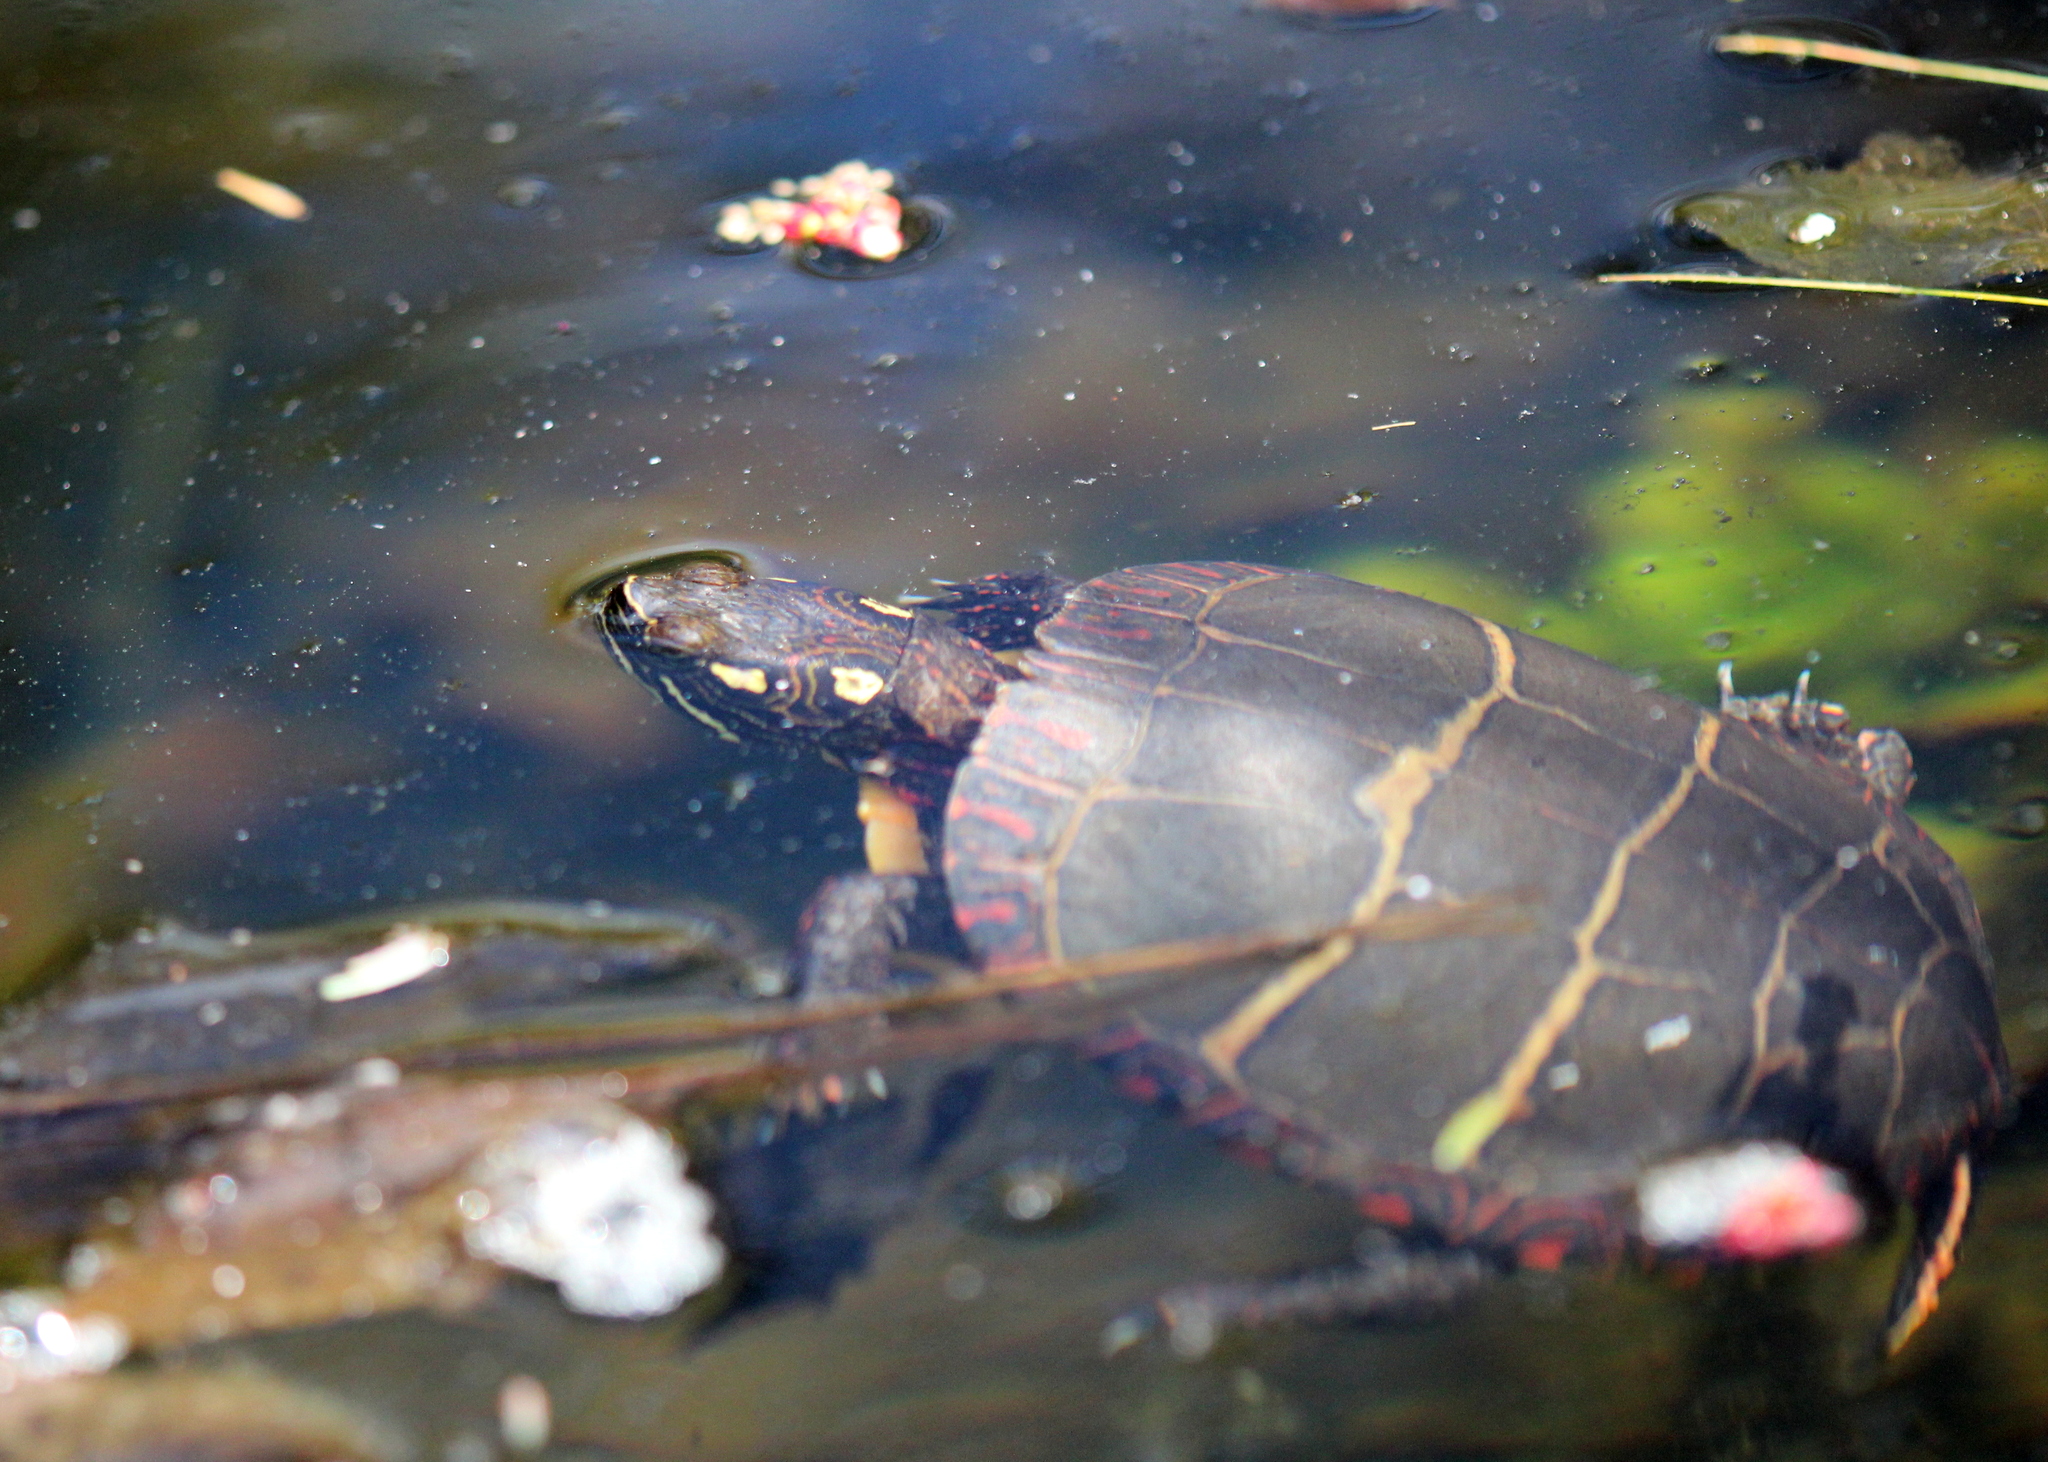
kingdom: Animalia
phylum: Chordata
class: Testudines
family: Emydidae
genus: Chrysemys
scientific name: Chrysemys picta
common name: Painted turtle
